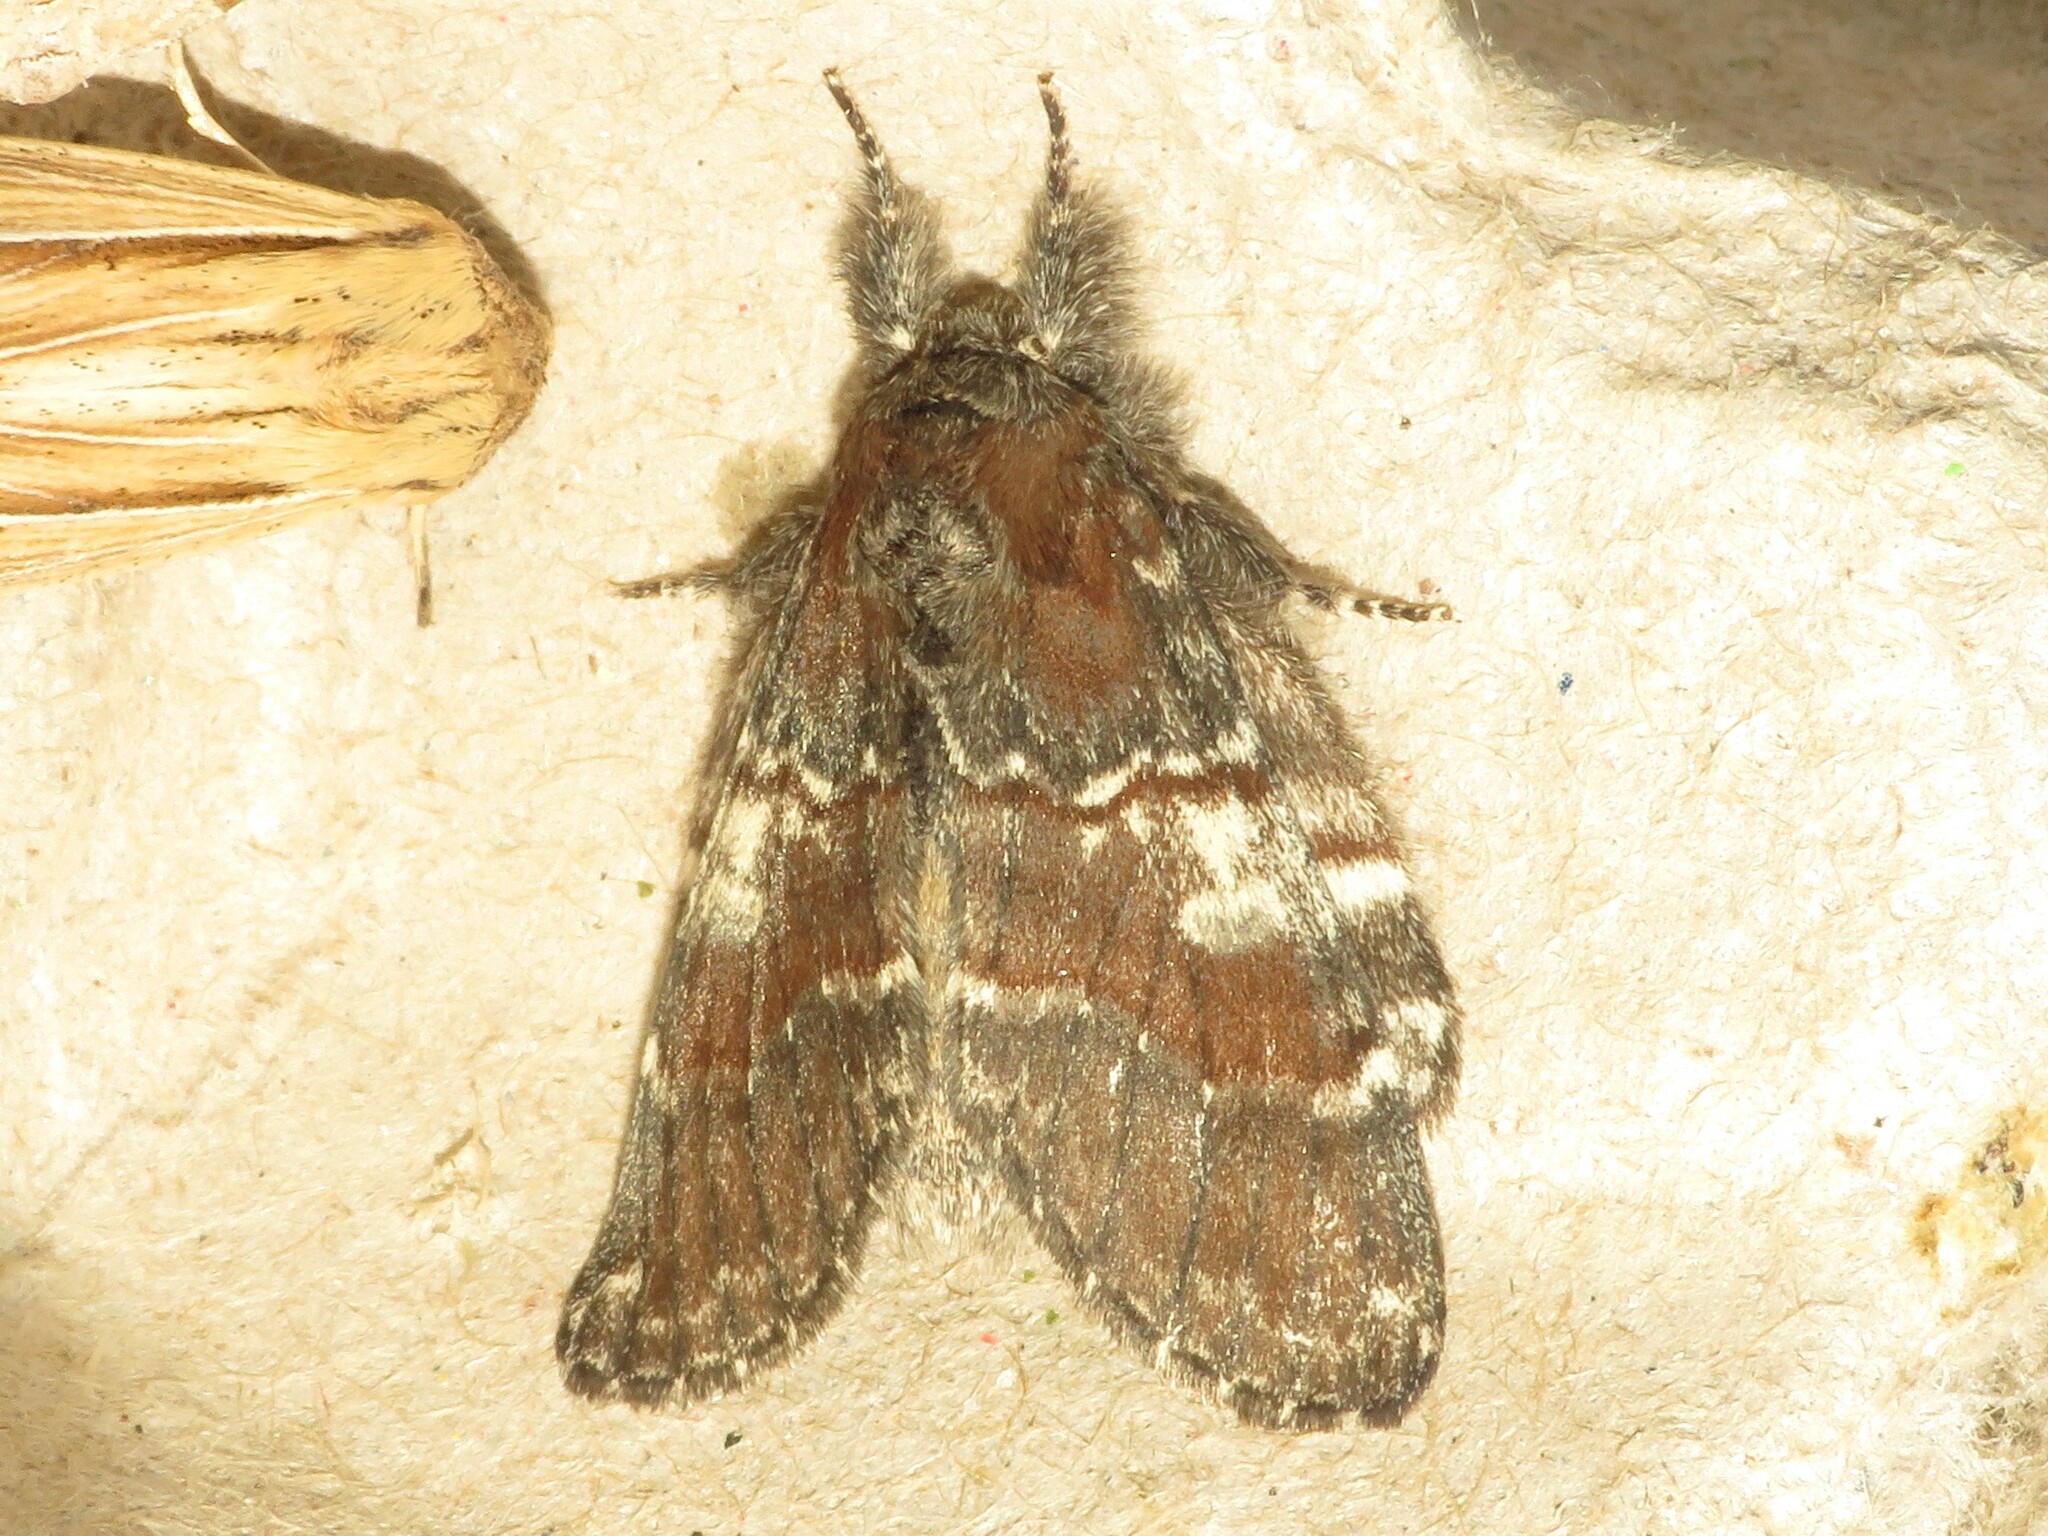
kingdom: Animalia
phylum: Arthropoda
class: Insecta
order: Lepidoptera
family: Notodontidae
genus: Peridea
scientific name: Peridea ferruginea
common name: Chocolate prominent
